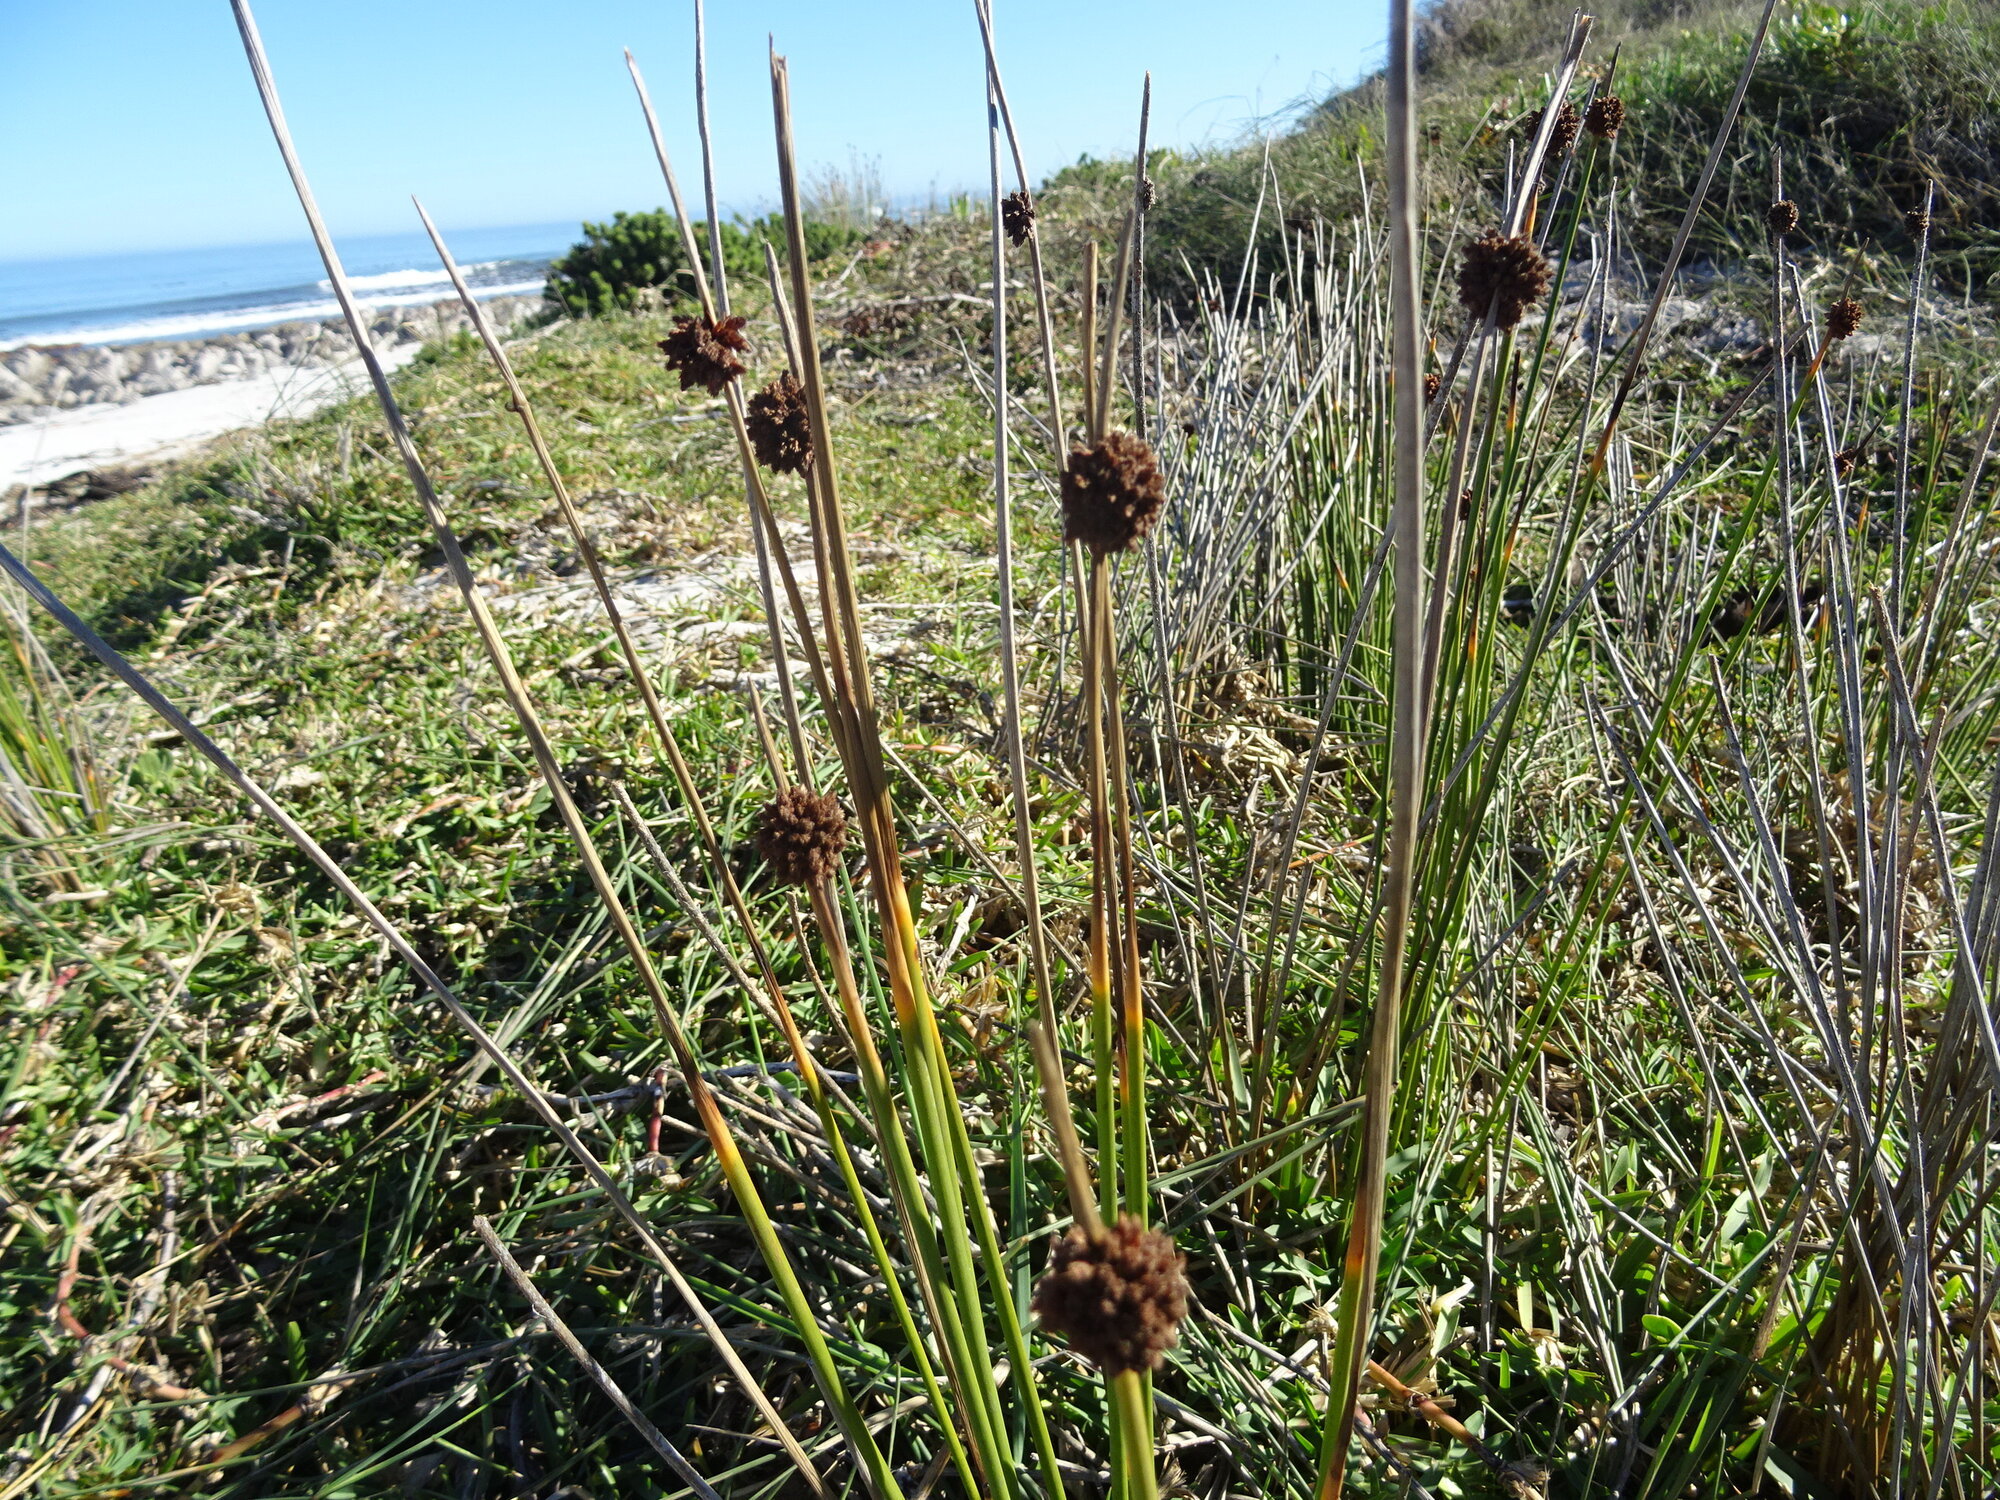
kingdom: Plantae
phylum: Tracheophyta
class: Liliopsida
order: Poales
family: Cyperaceae
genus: Ficinia
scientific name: Ficinia nodosa
